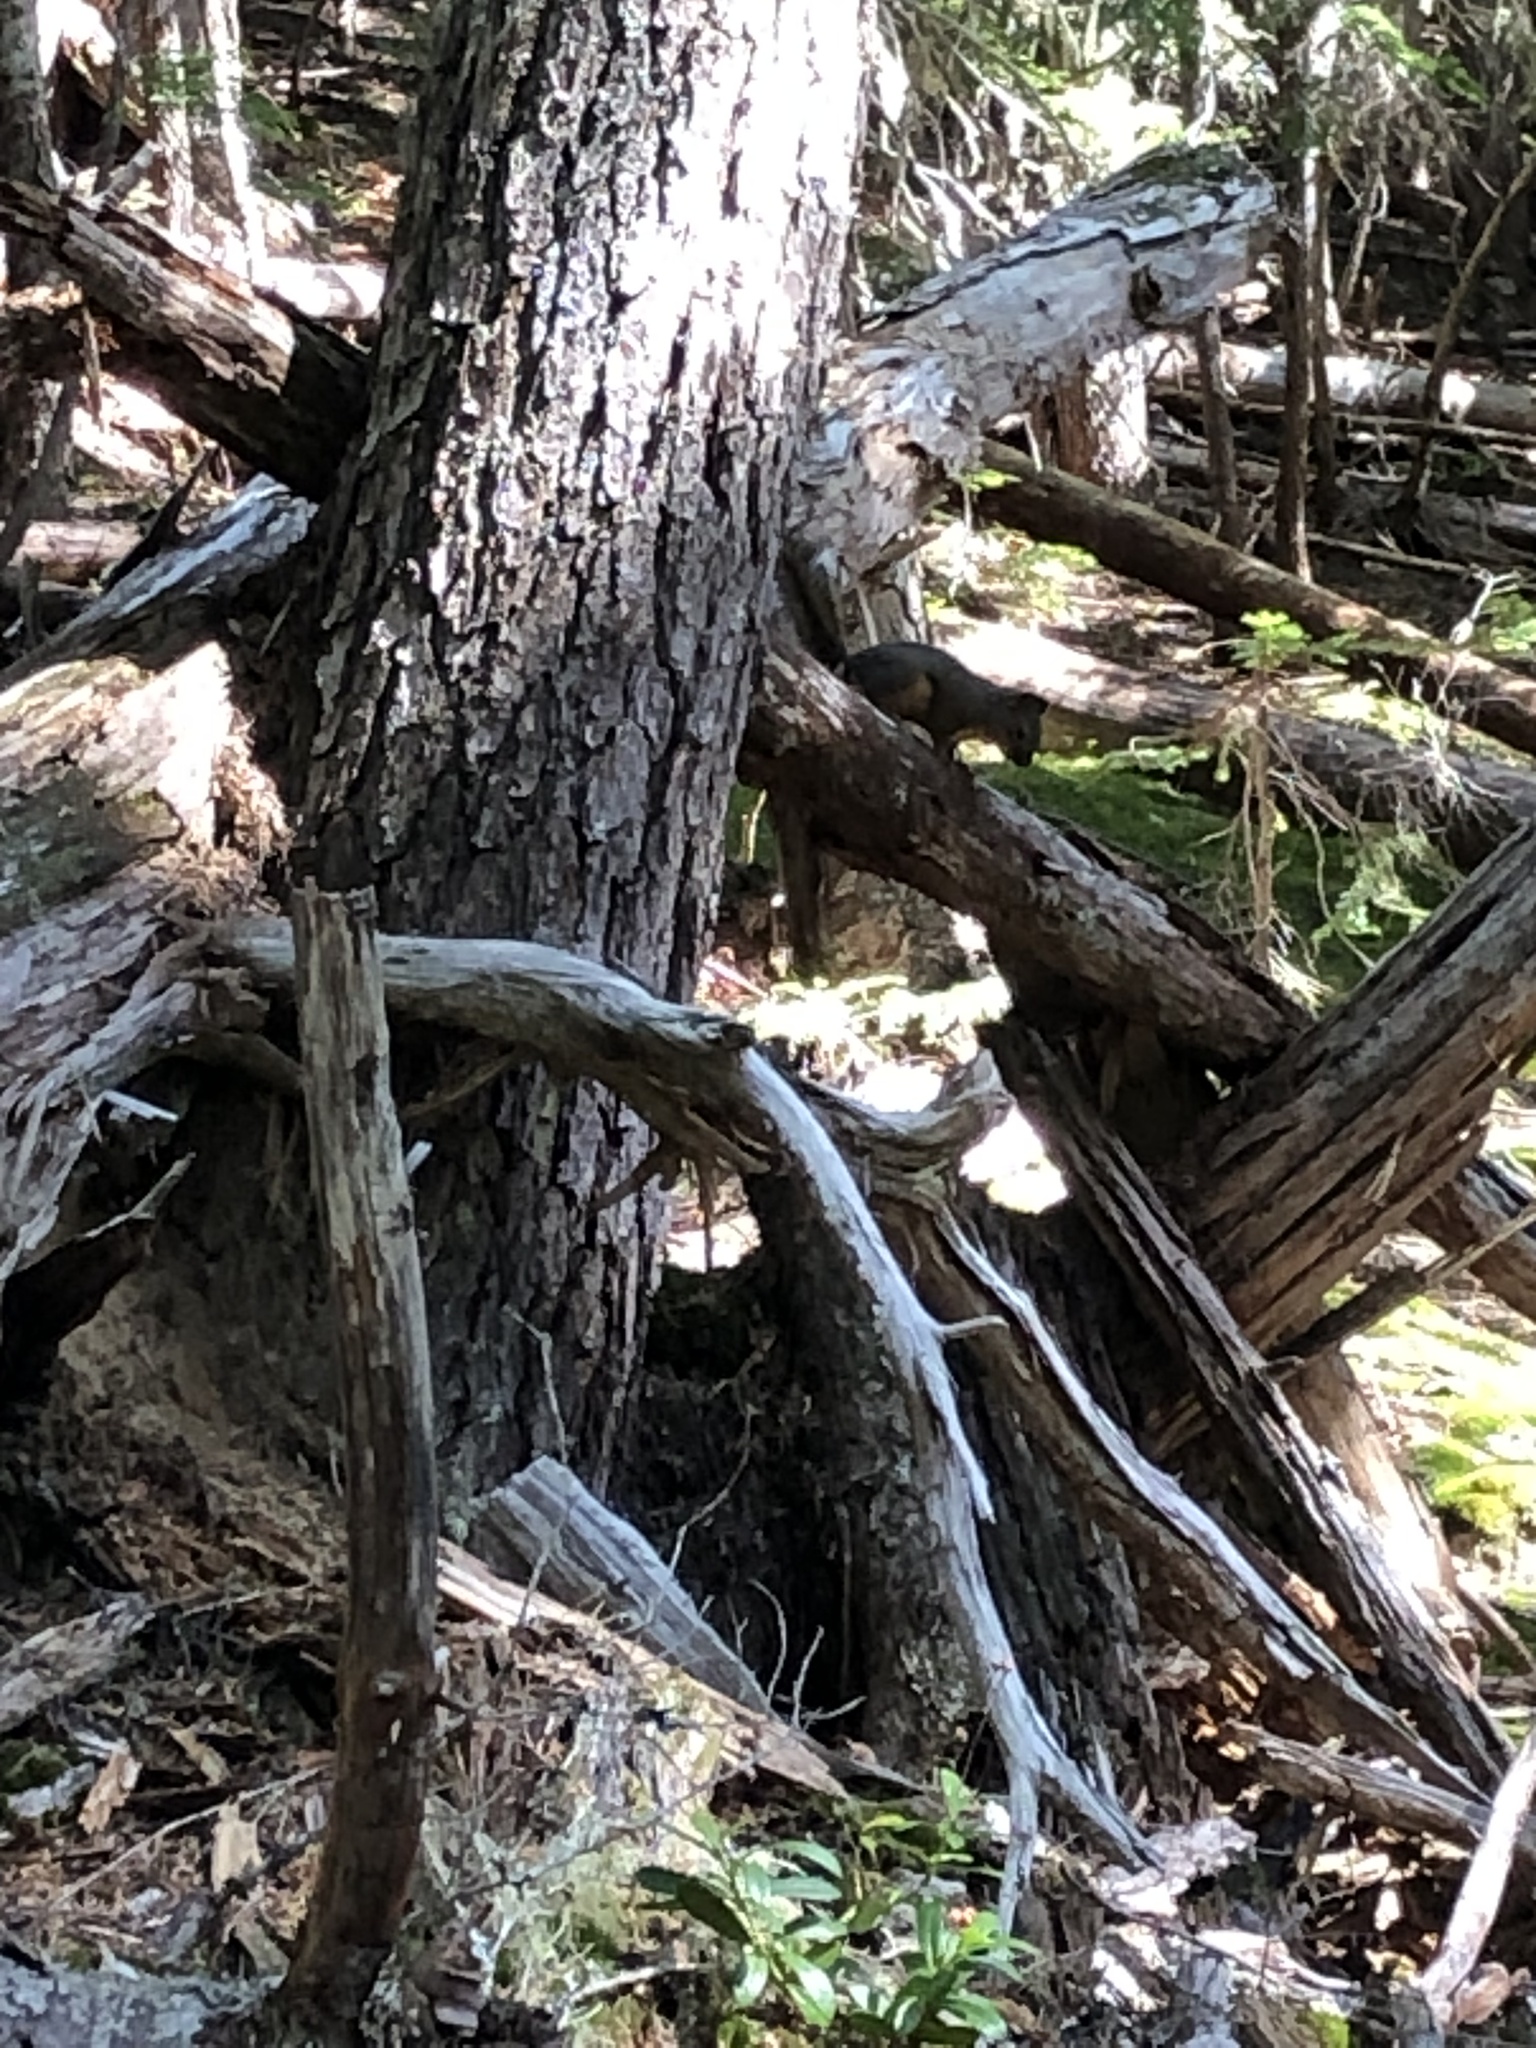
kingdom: Animalia
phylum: Chordata
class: Mammalia
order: Rodentia
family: Sciuridae
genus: Tamiasciurus
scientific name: Tamiasciurus douglasii
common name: Douglas's squirrel
